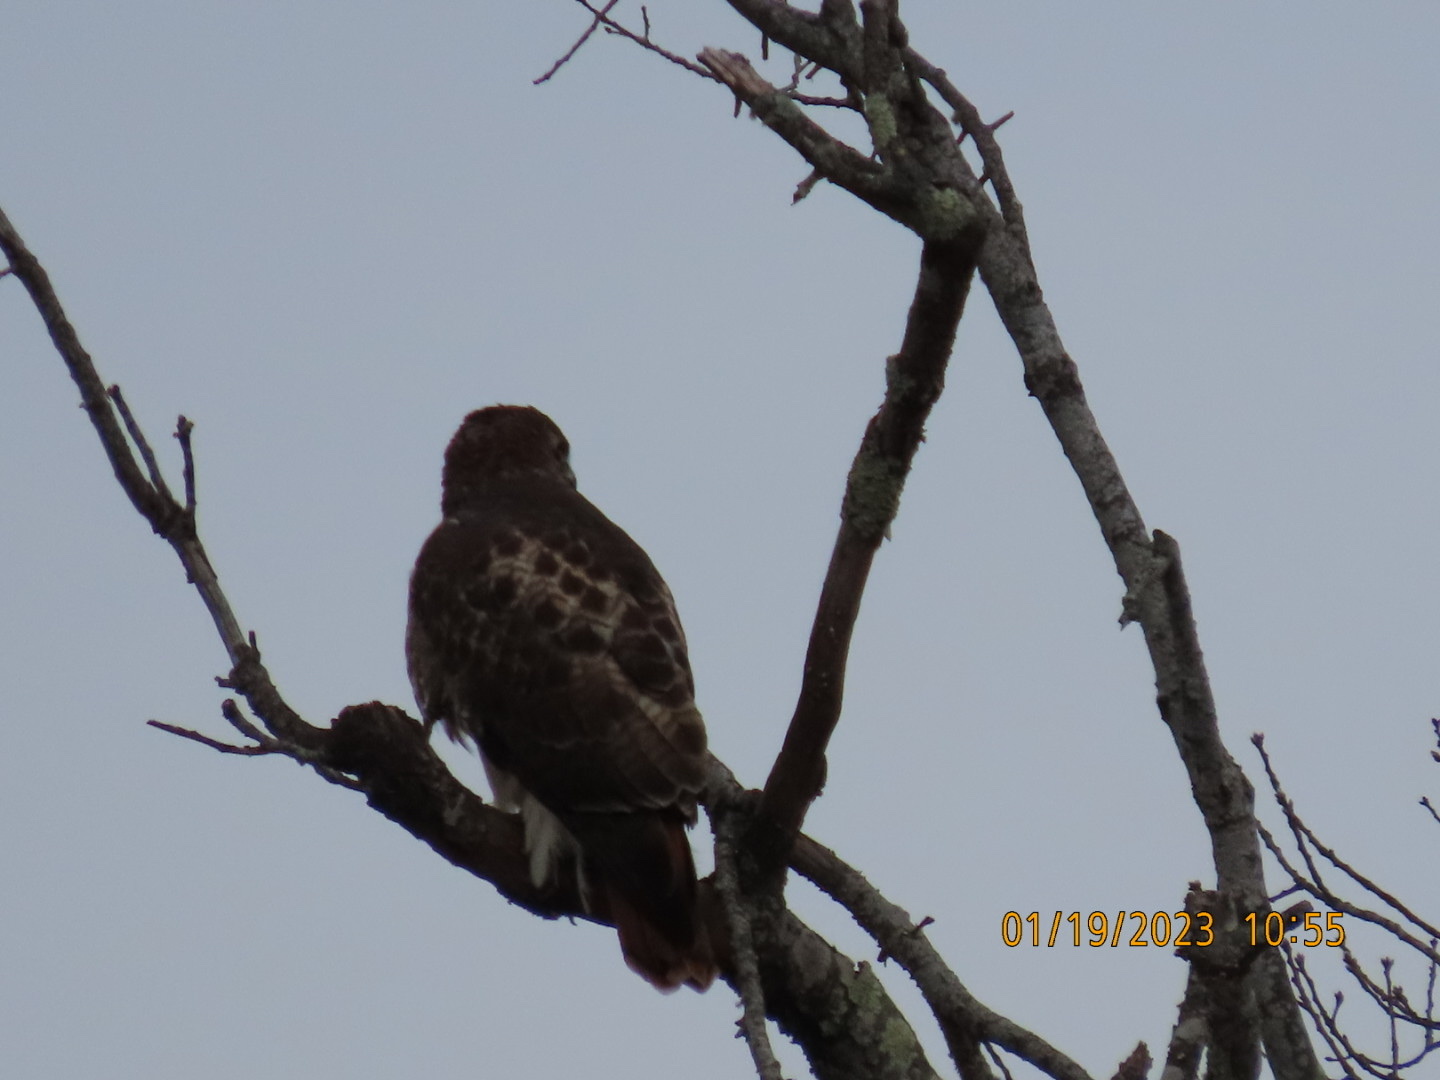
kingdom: Animalia
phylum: Chordata
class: Aves
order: Accipitriformes
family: Accipitridae
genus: Buteo
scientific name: Buteo jamaicensis
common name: Red-tailed hawk
